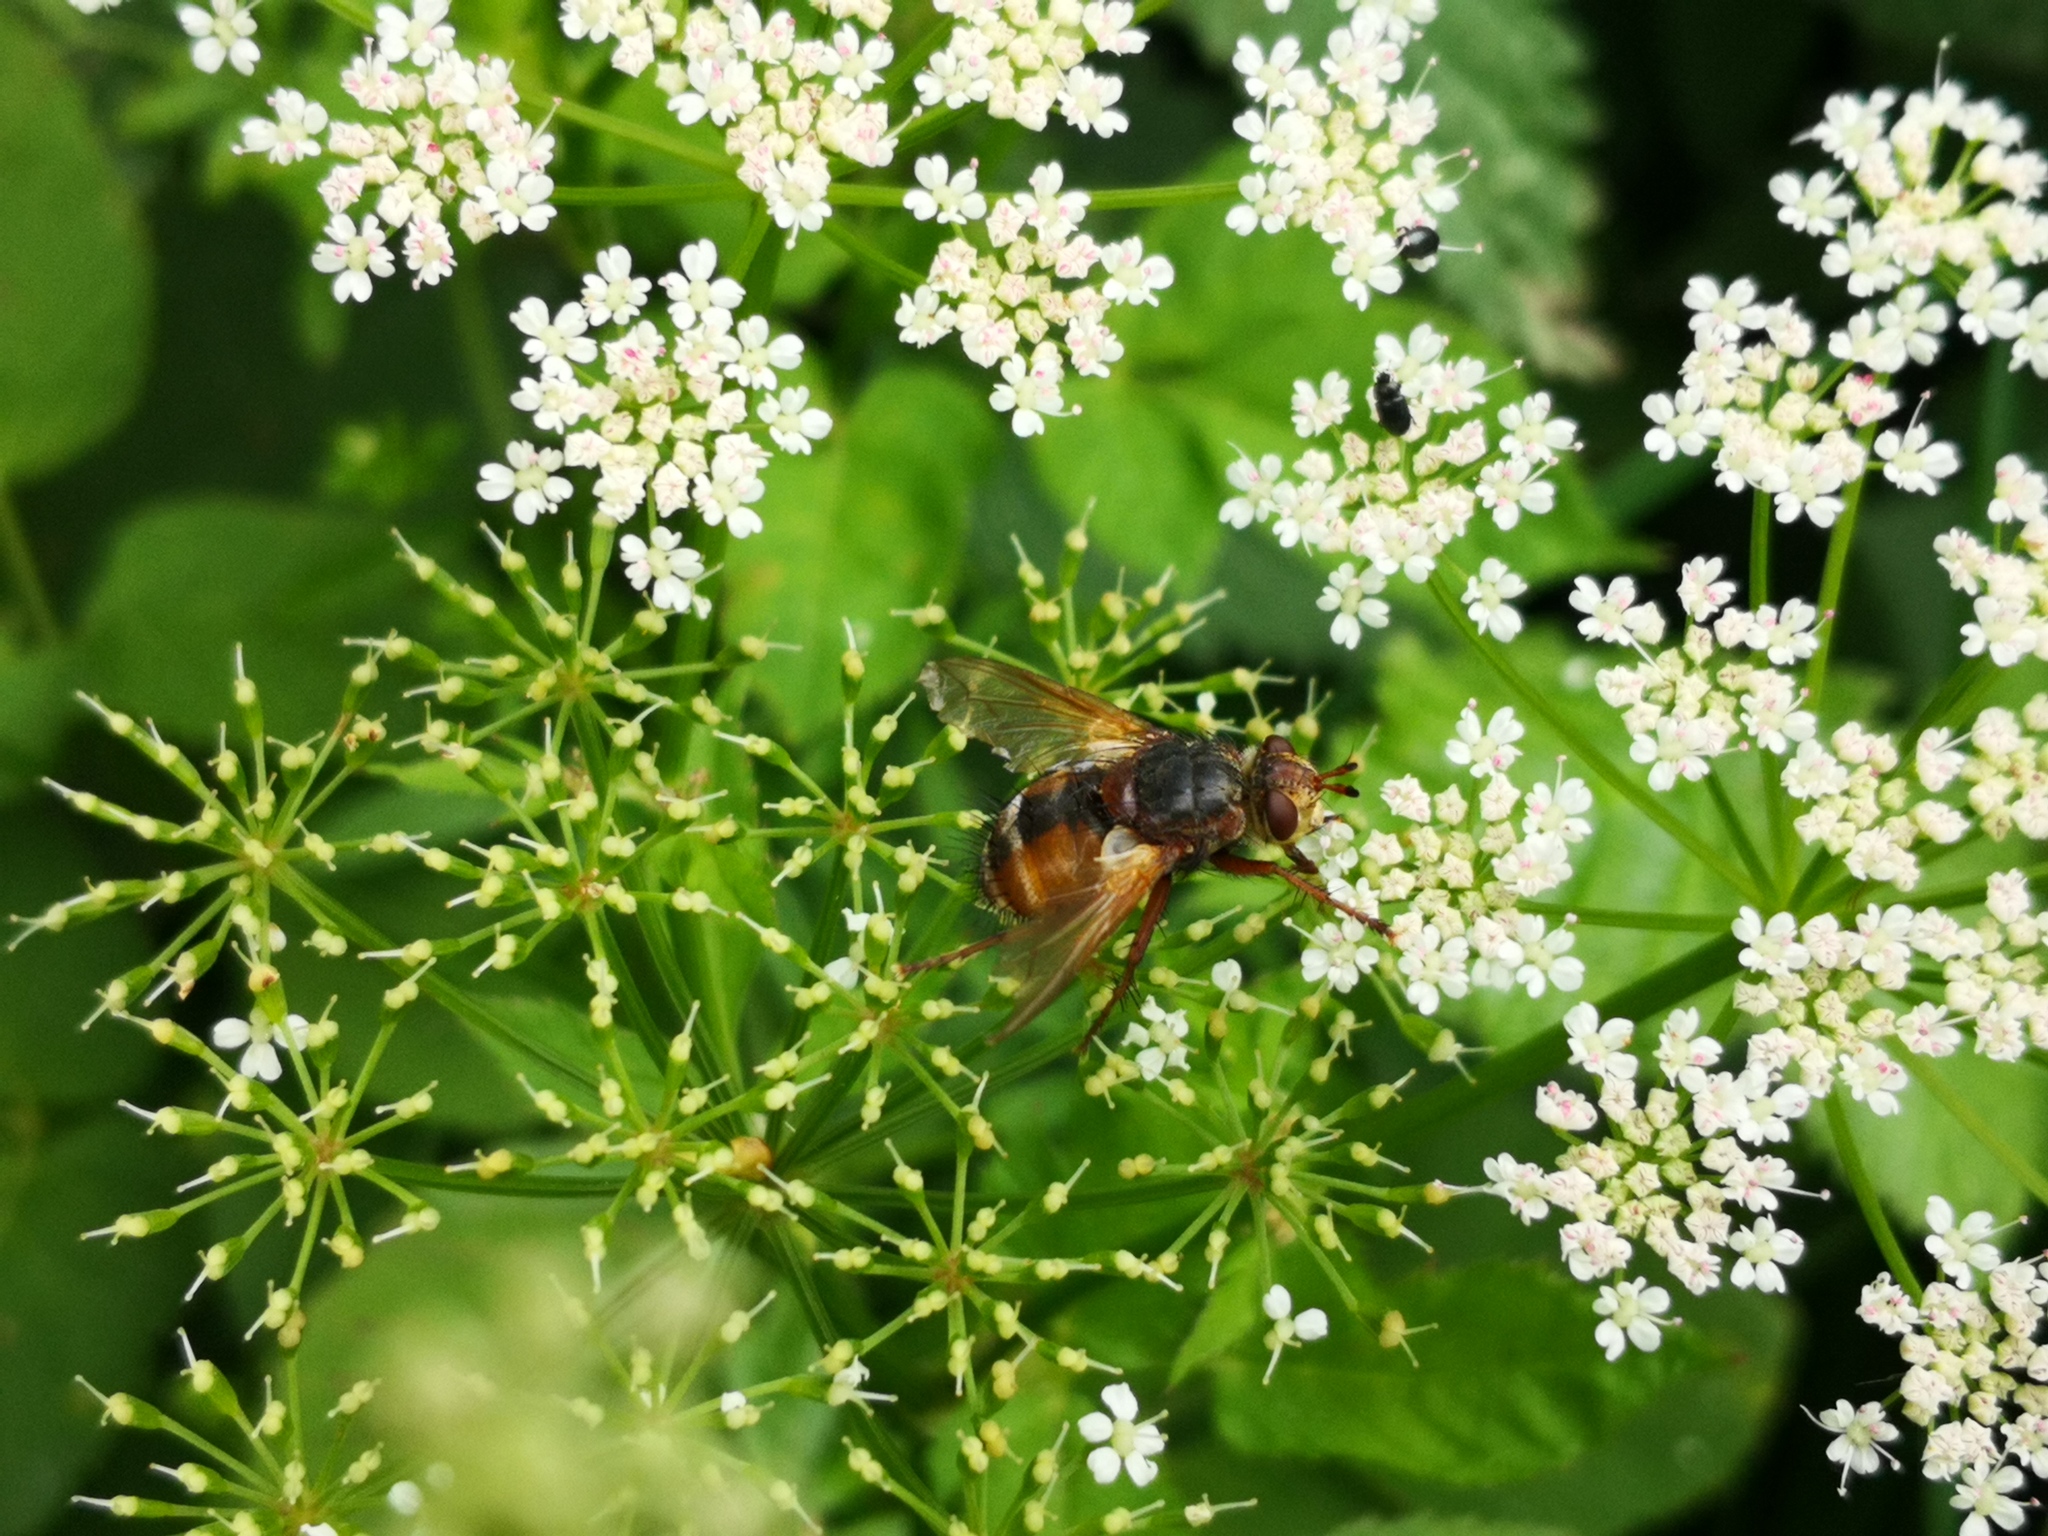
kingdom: Animalia
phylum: Arthropoda
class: Insecta
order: Diptera
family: Tachinidae
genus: Tachina
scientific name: Tachina fera
